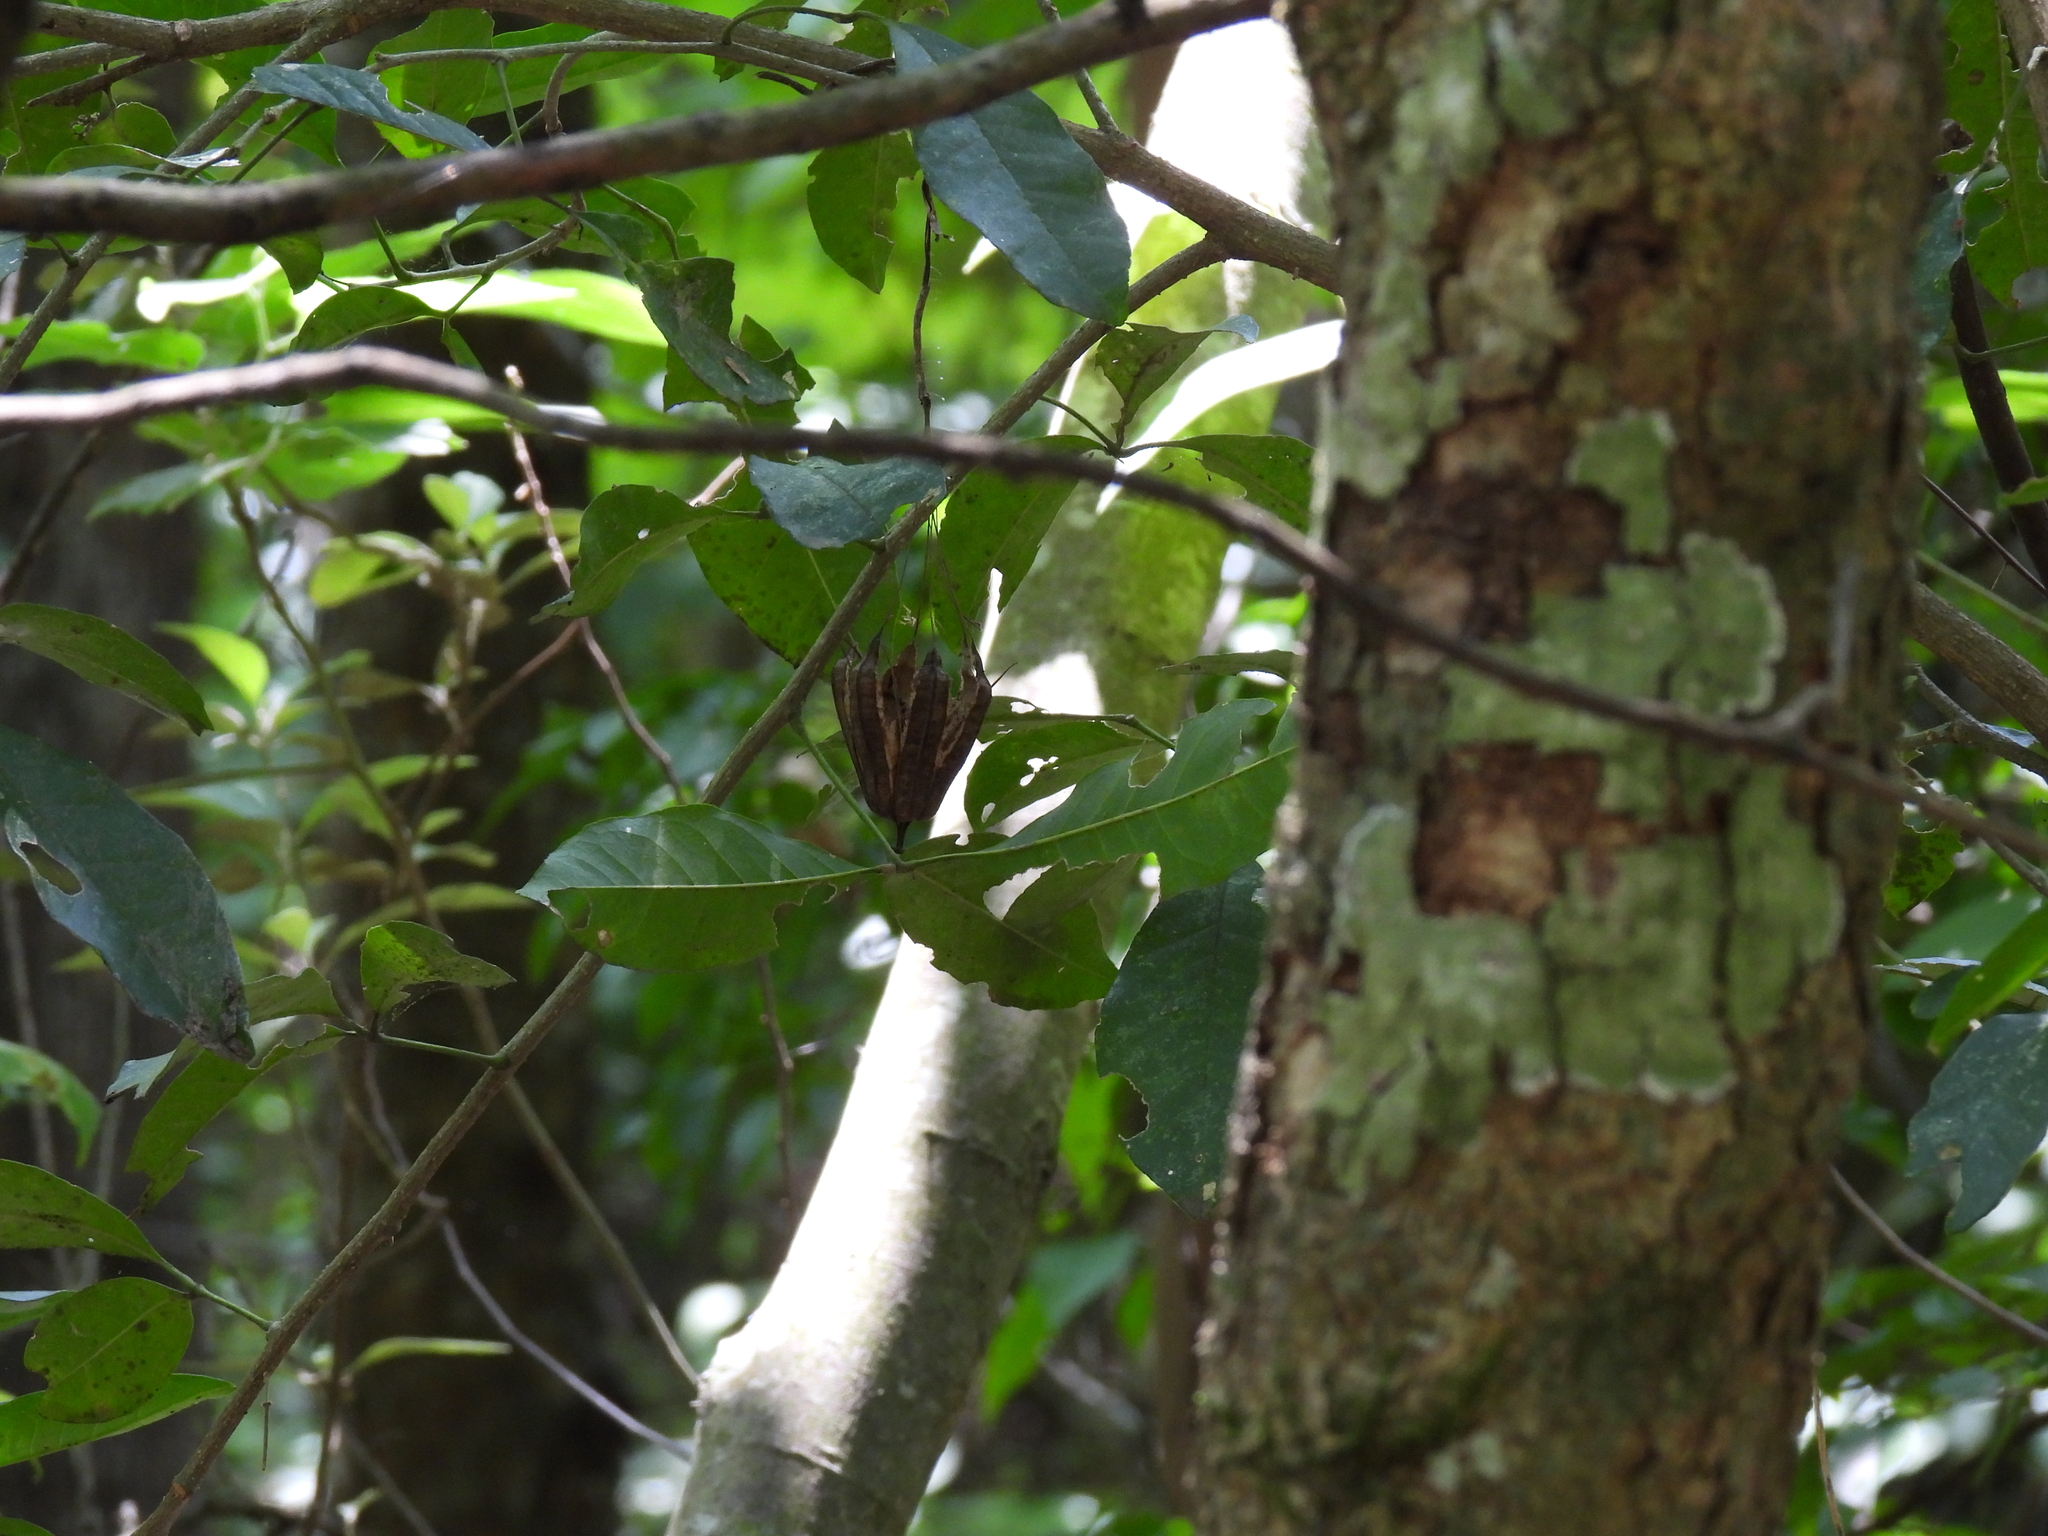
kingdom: Plantae
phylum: Tracheophyta
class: Magnoliopsida
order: Piperales
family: Aristolochiaceae
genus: Aristolochia
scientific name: Aristolochia littoralis
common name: Duck
